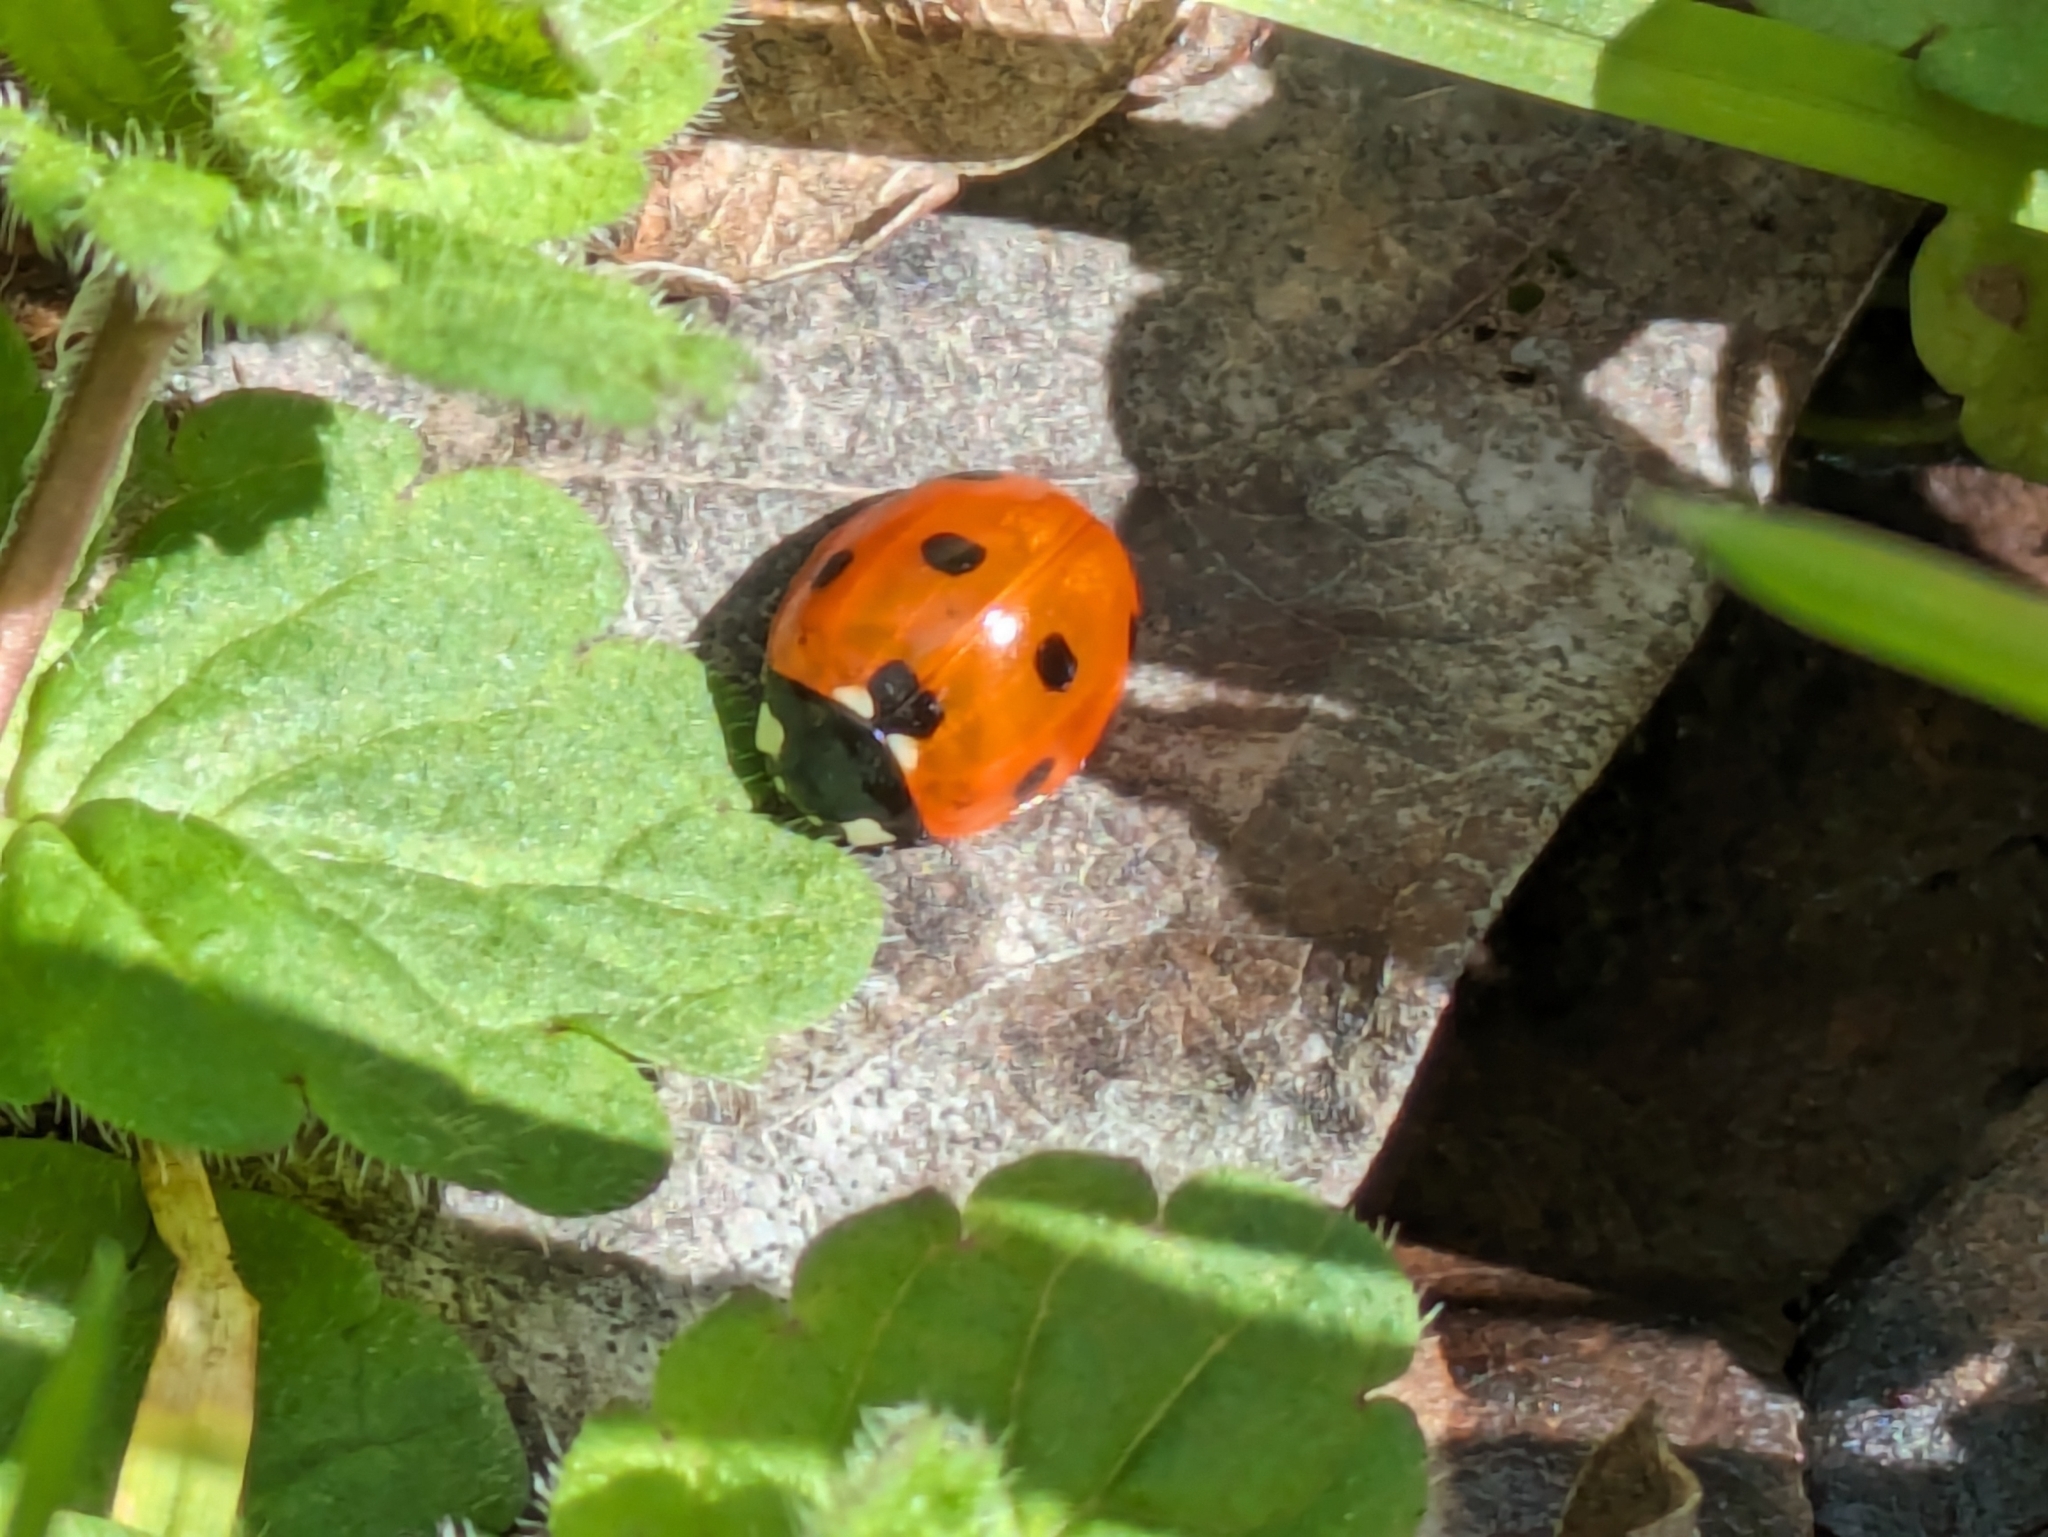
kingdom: Animalia
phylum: Arthropoda
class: Insecta
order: Coleoptera
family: Coccinellidae
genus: Coccinella
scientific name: Coccinella septempunctata
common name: Sevenspotted lady beetle
